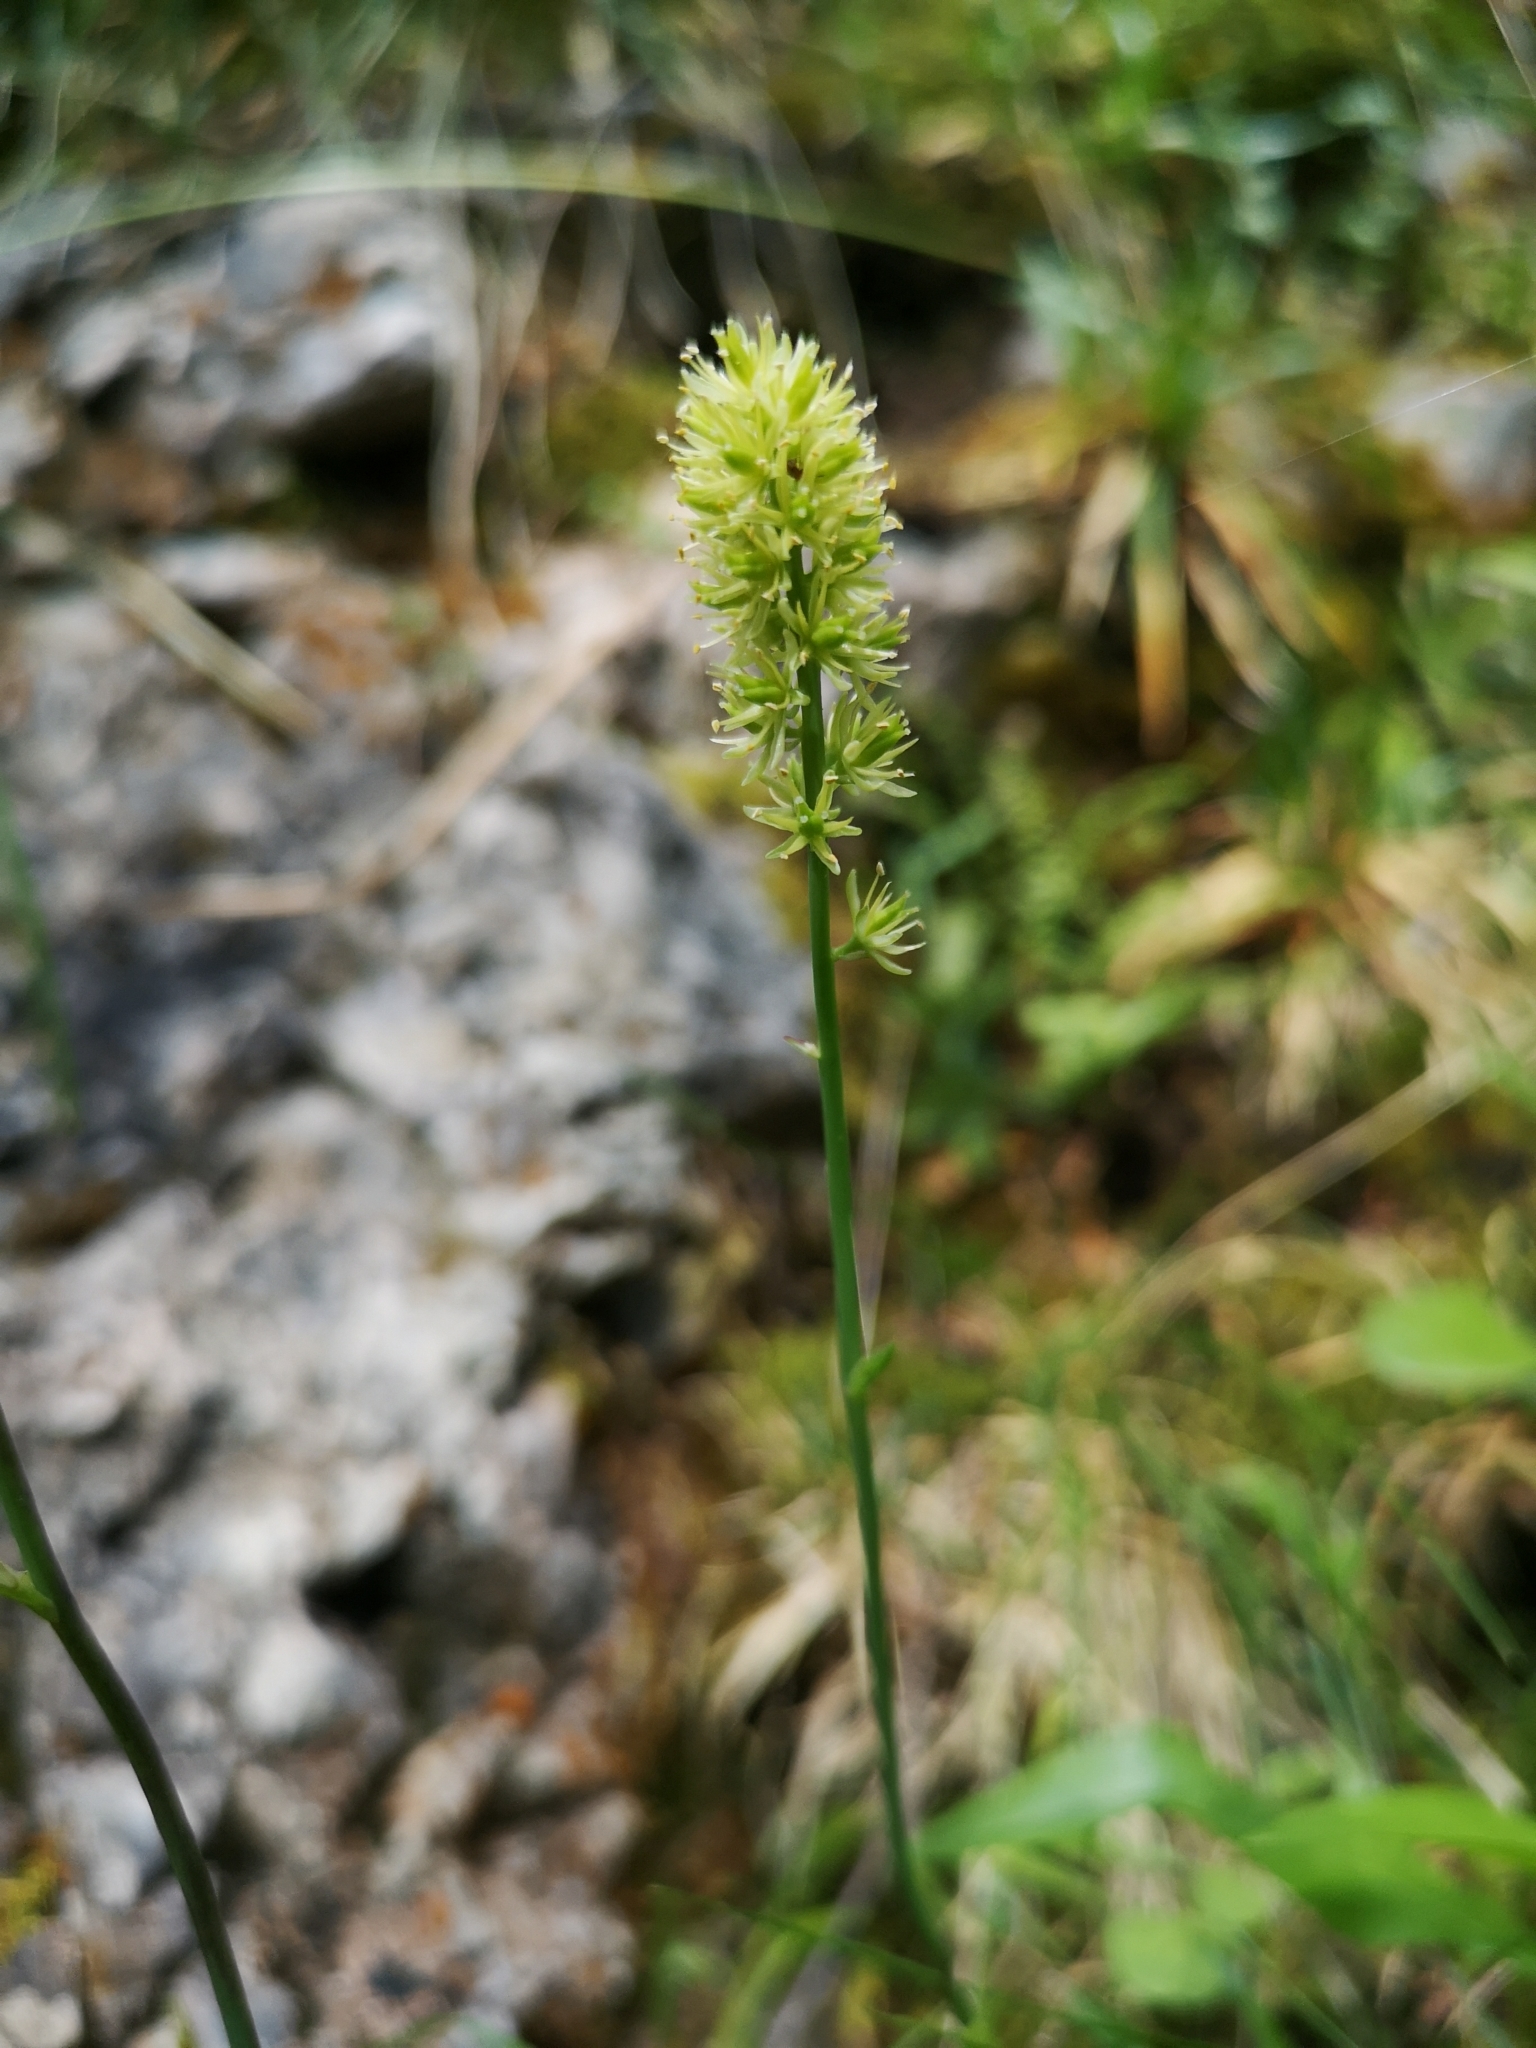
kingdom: Plantae
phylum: Tracheophyta
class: Liliopsida
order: Alismatales
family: Tofieldiaceae
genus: Tofieldia
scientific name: Tofieldia calyculata
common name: German-asphodel
